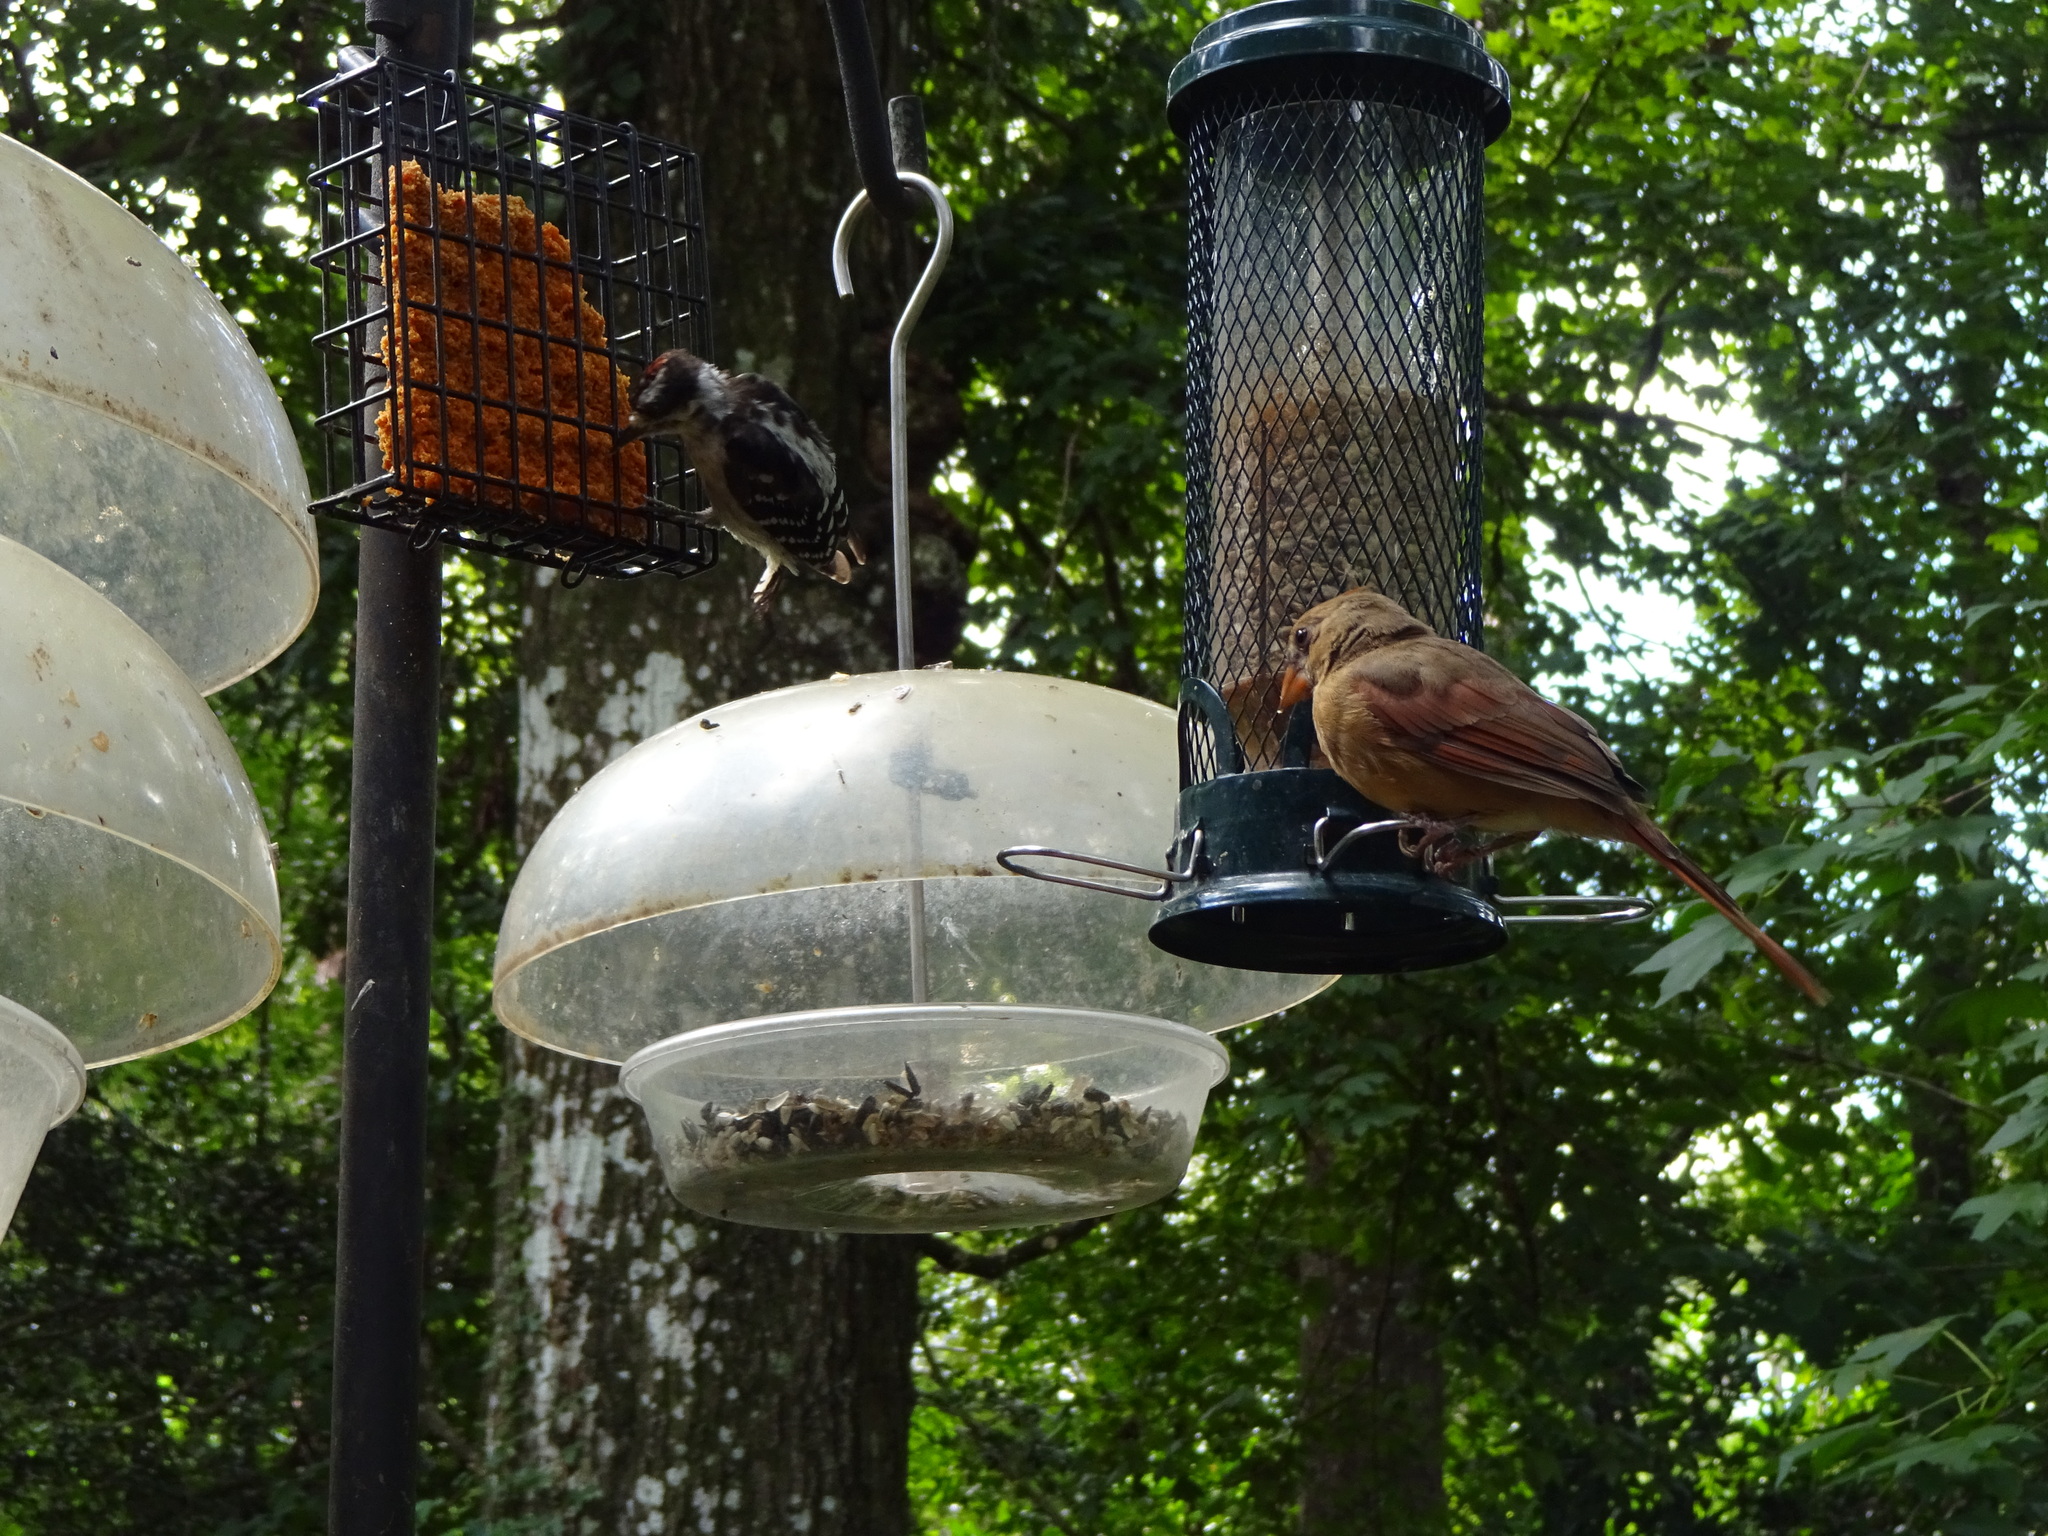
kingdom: Animalia
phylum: Chordata
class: Aves
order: Piciformes
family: Picidae
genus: Dryobates
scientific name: Dryobates pubescens
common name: Downy woodpecker
